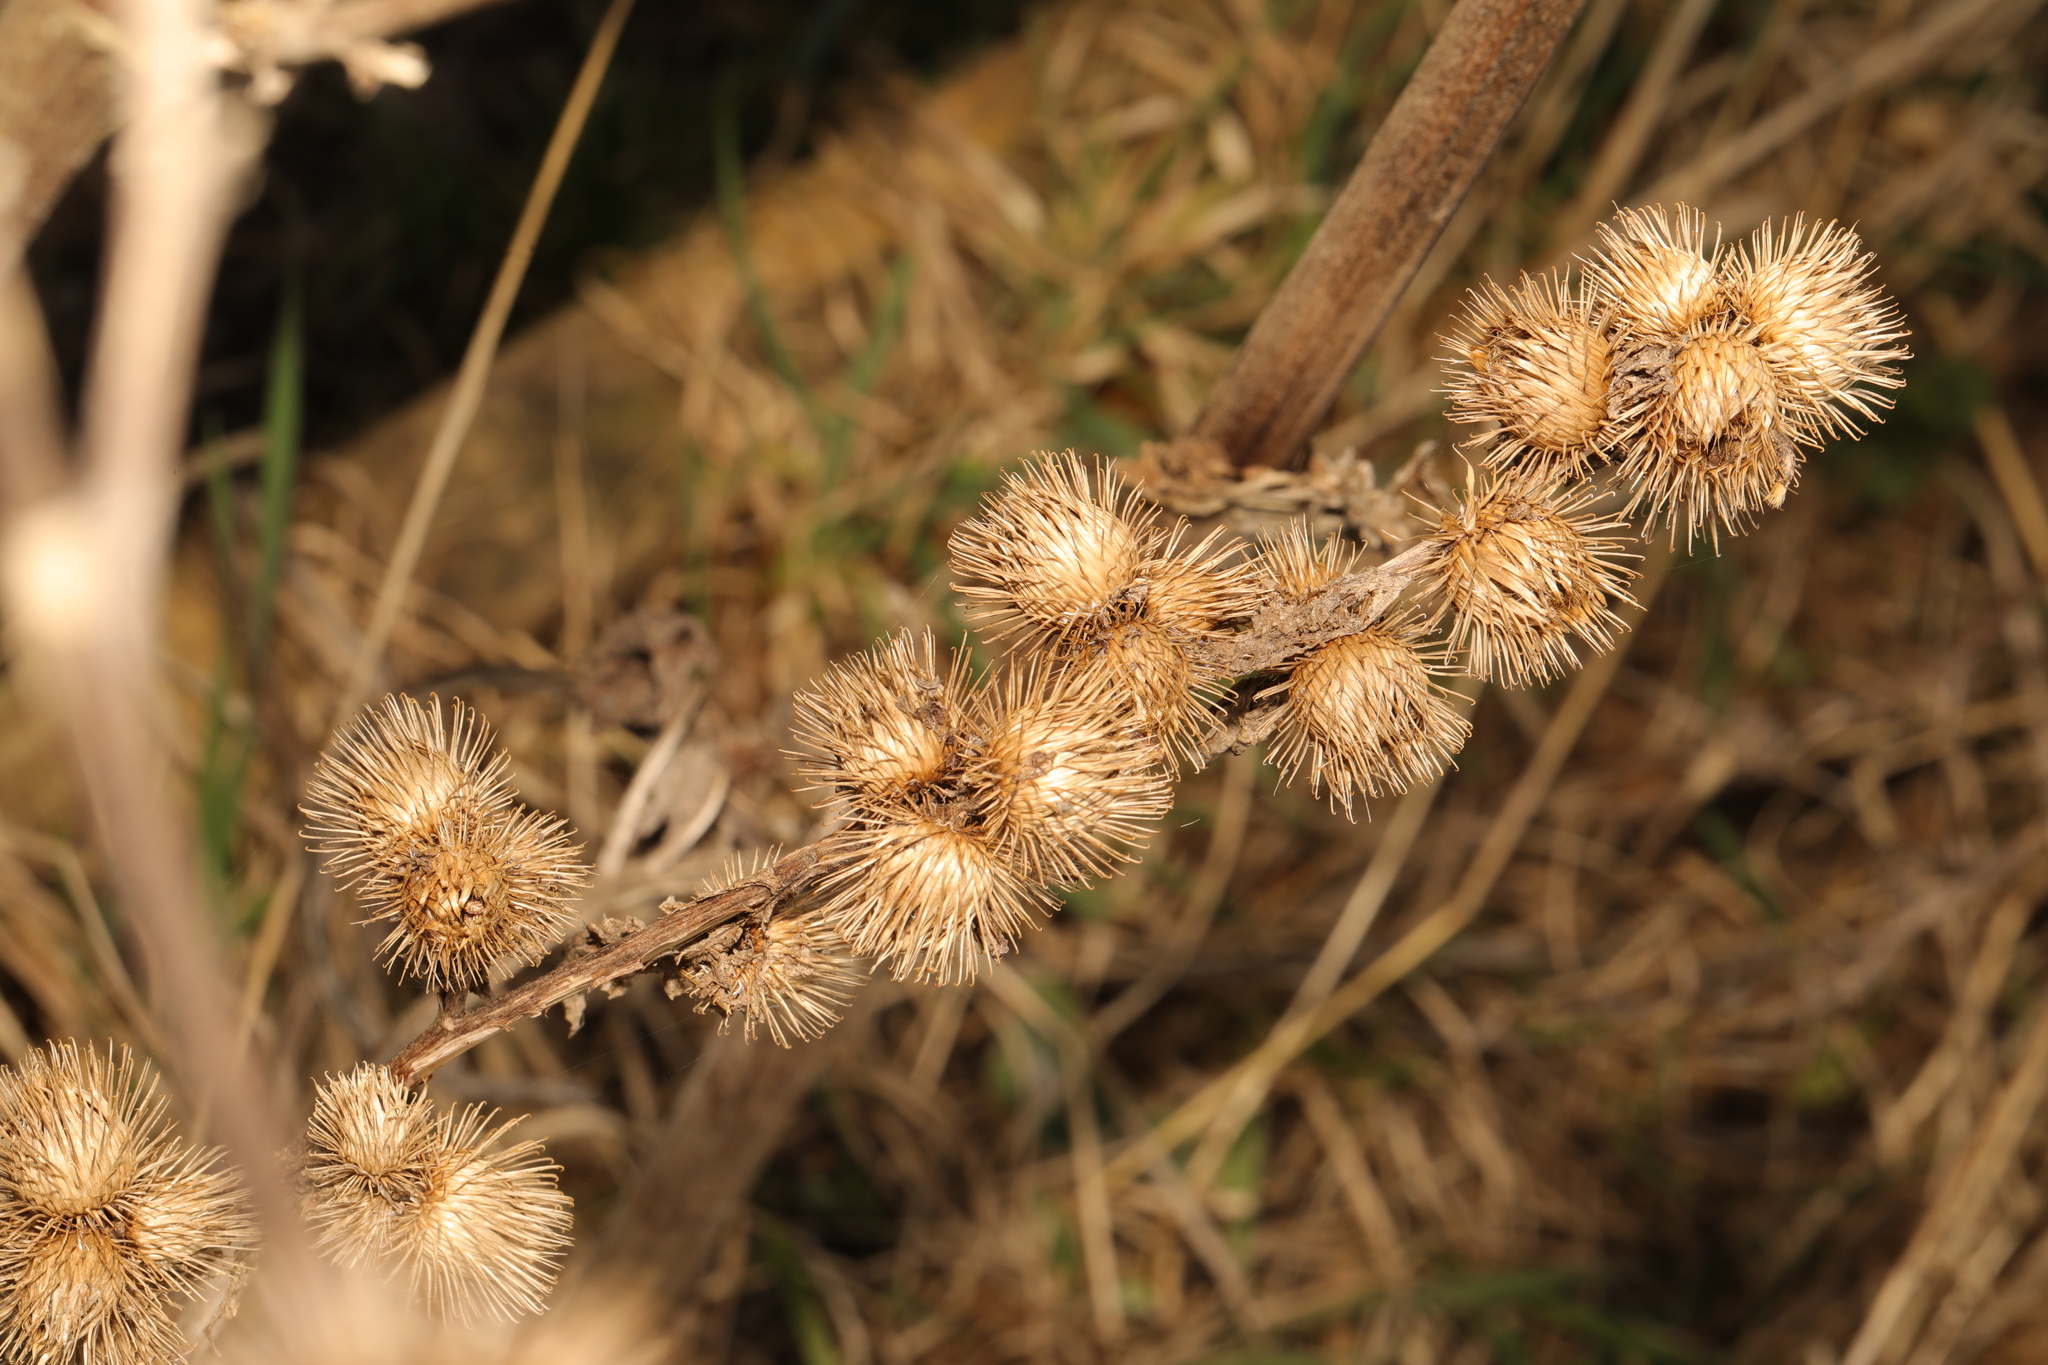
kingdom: Plantae
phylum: Tracheophyta
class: Magnoliopsida
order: Asterales
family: Asteraceae
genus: Arctium
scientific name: Arctium minus
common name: Lesser burdock
